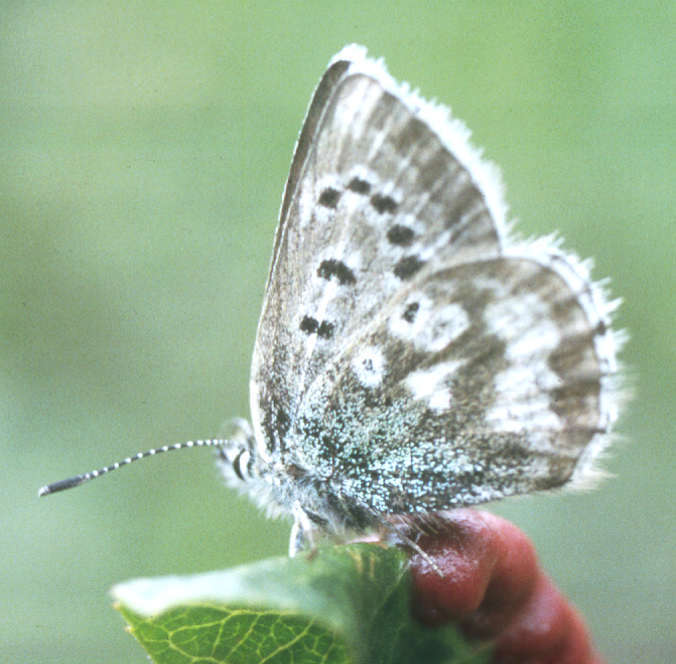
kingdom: Animalia
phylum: Arthropoda
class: Insecta
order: Lepidoptera
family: Lycaenidae
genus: Agriades
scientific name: Agriades pheretiades
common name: Tien shan blue
